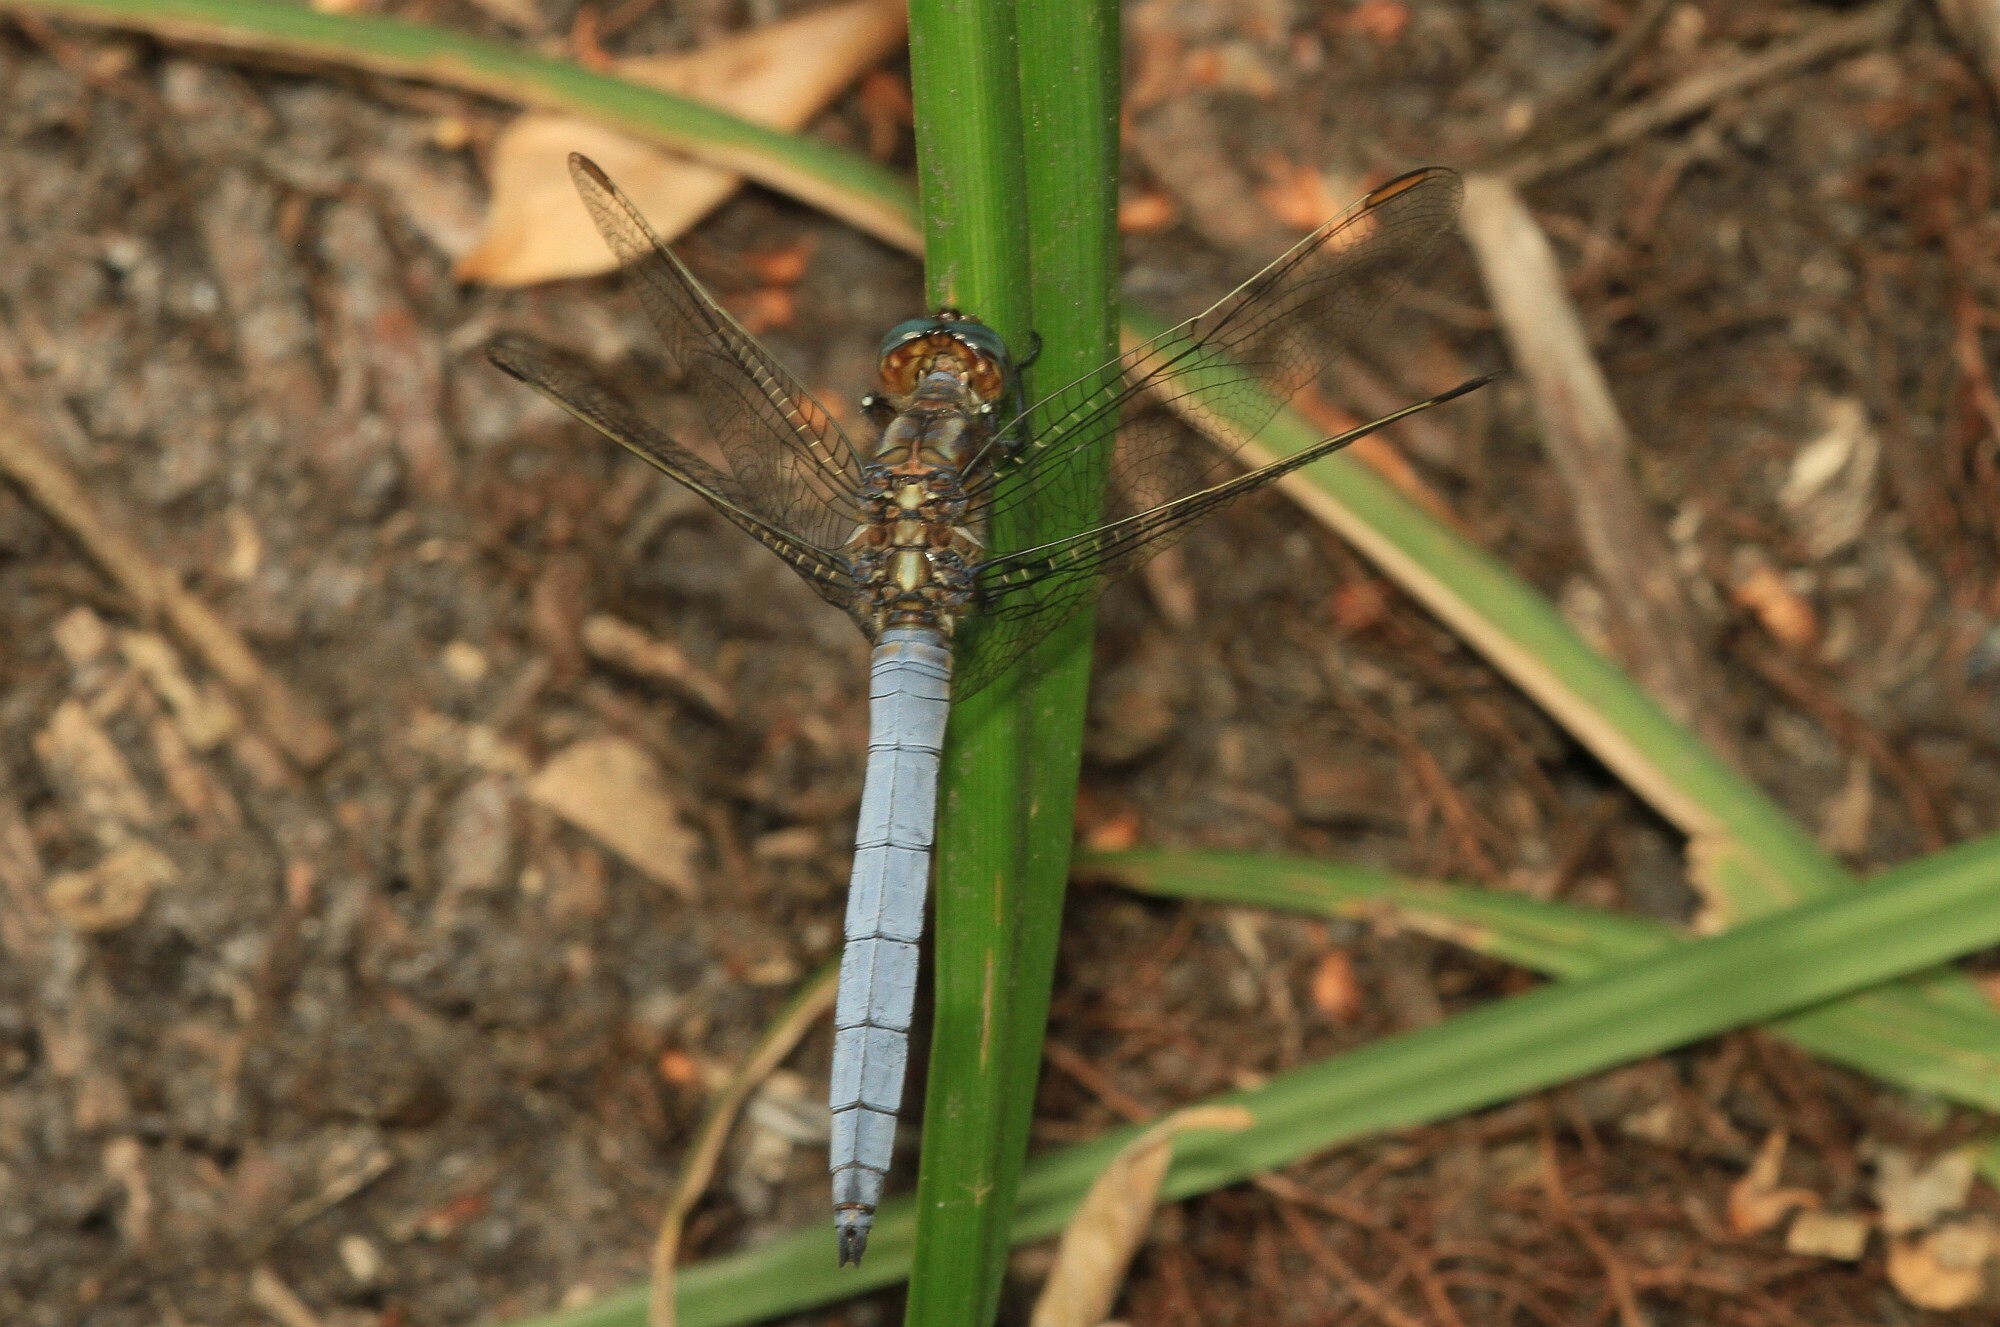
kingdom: Animalia
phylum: Arthropoda
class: Insecta
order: Odonata
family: Libellulidae
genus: Orthetrum
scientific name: Orthetrum coerulescens
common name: Keeled skimmer
